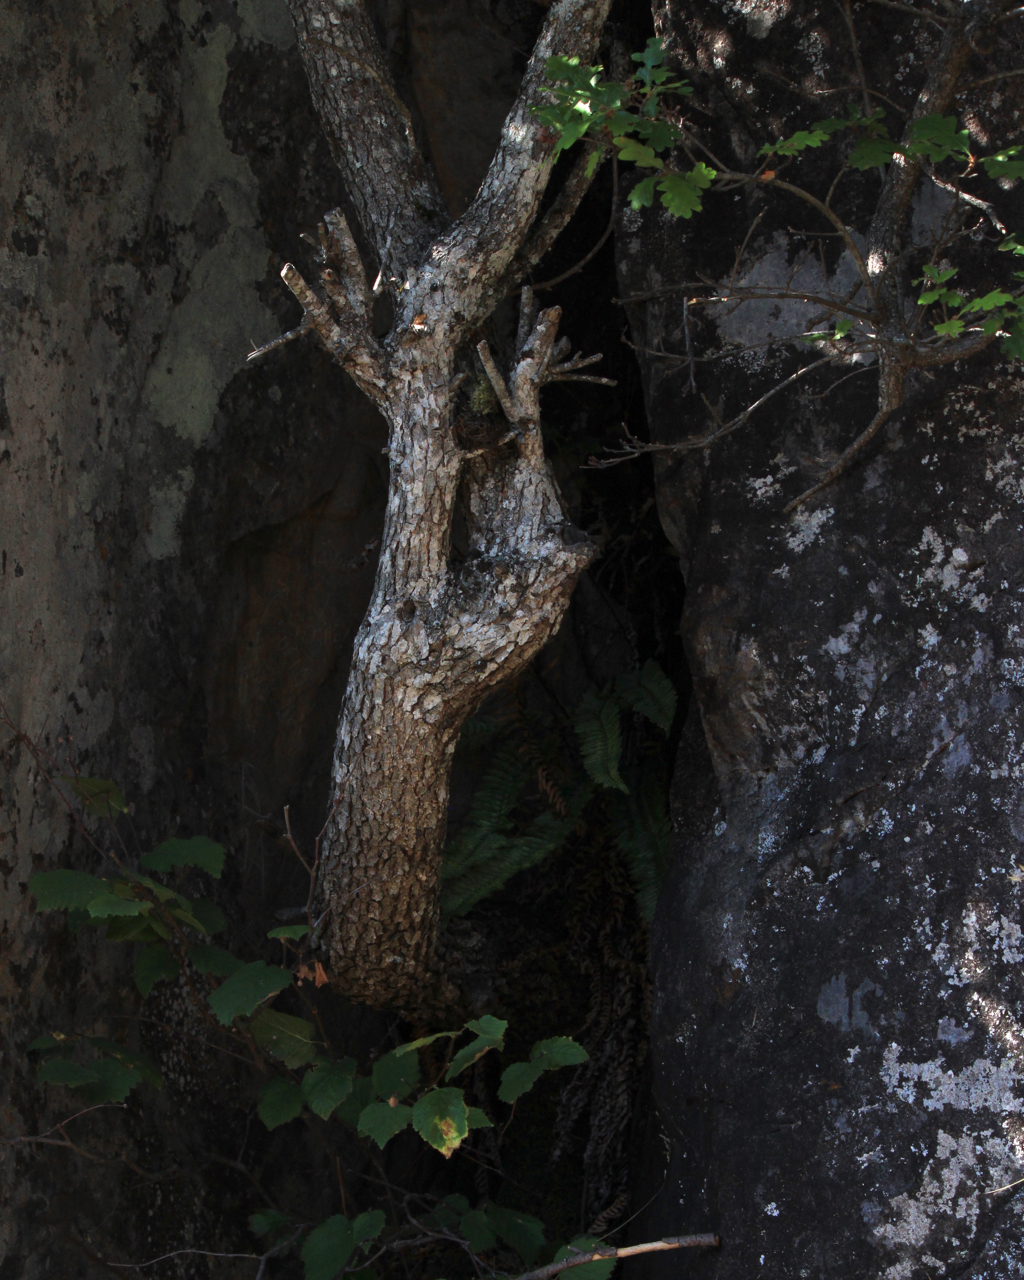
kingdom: Plantae
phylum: Tracheophyta
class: Magnoliopsida
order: Fagales
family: Fagaceae
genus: Quercus
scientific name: Quercus garryana
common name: Garry oak
